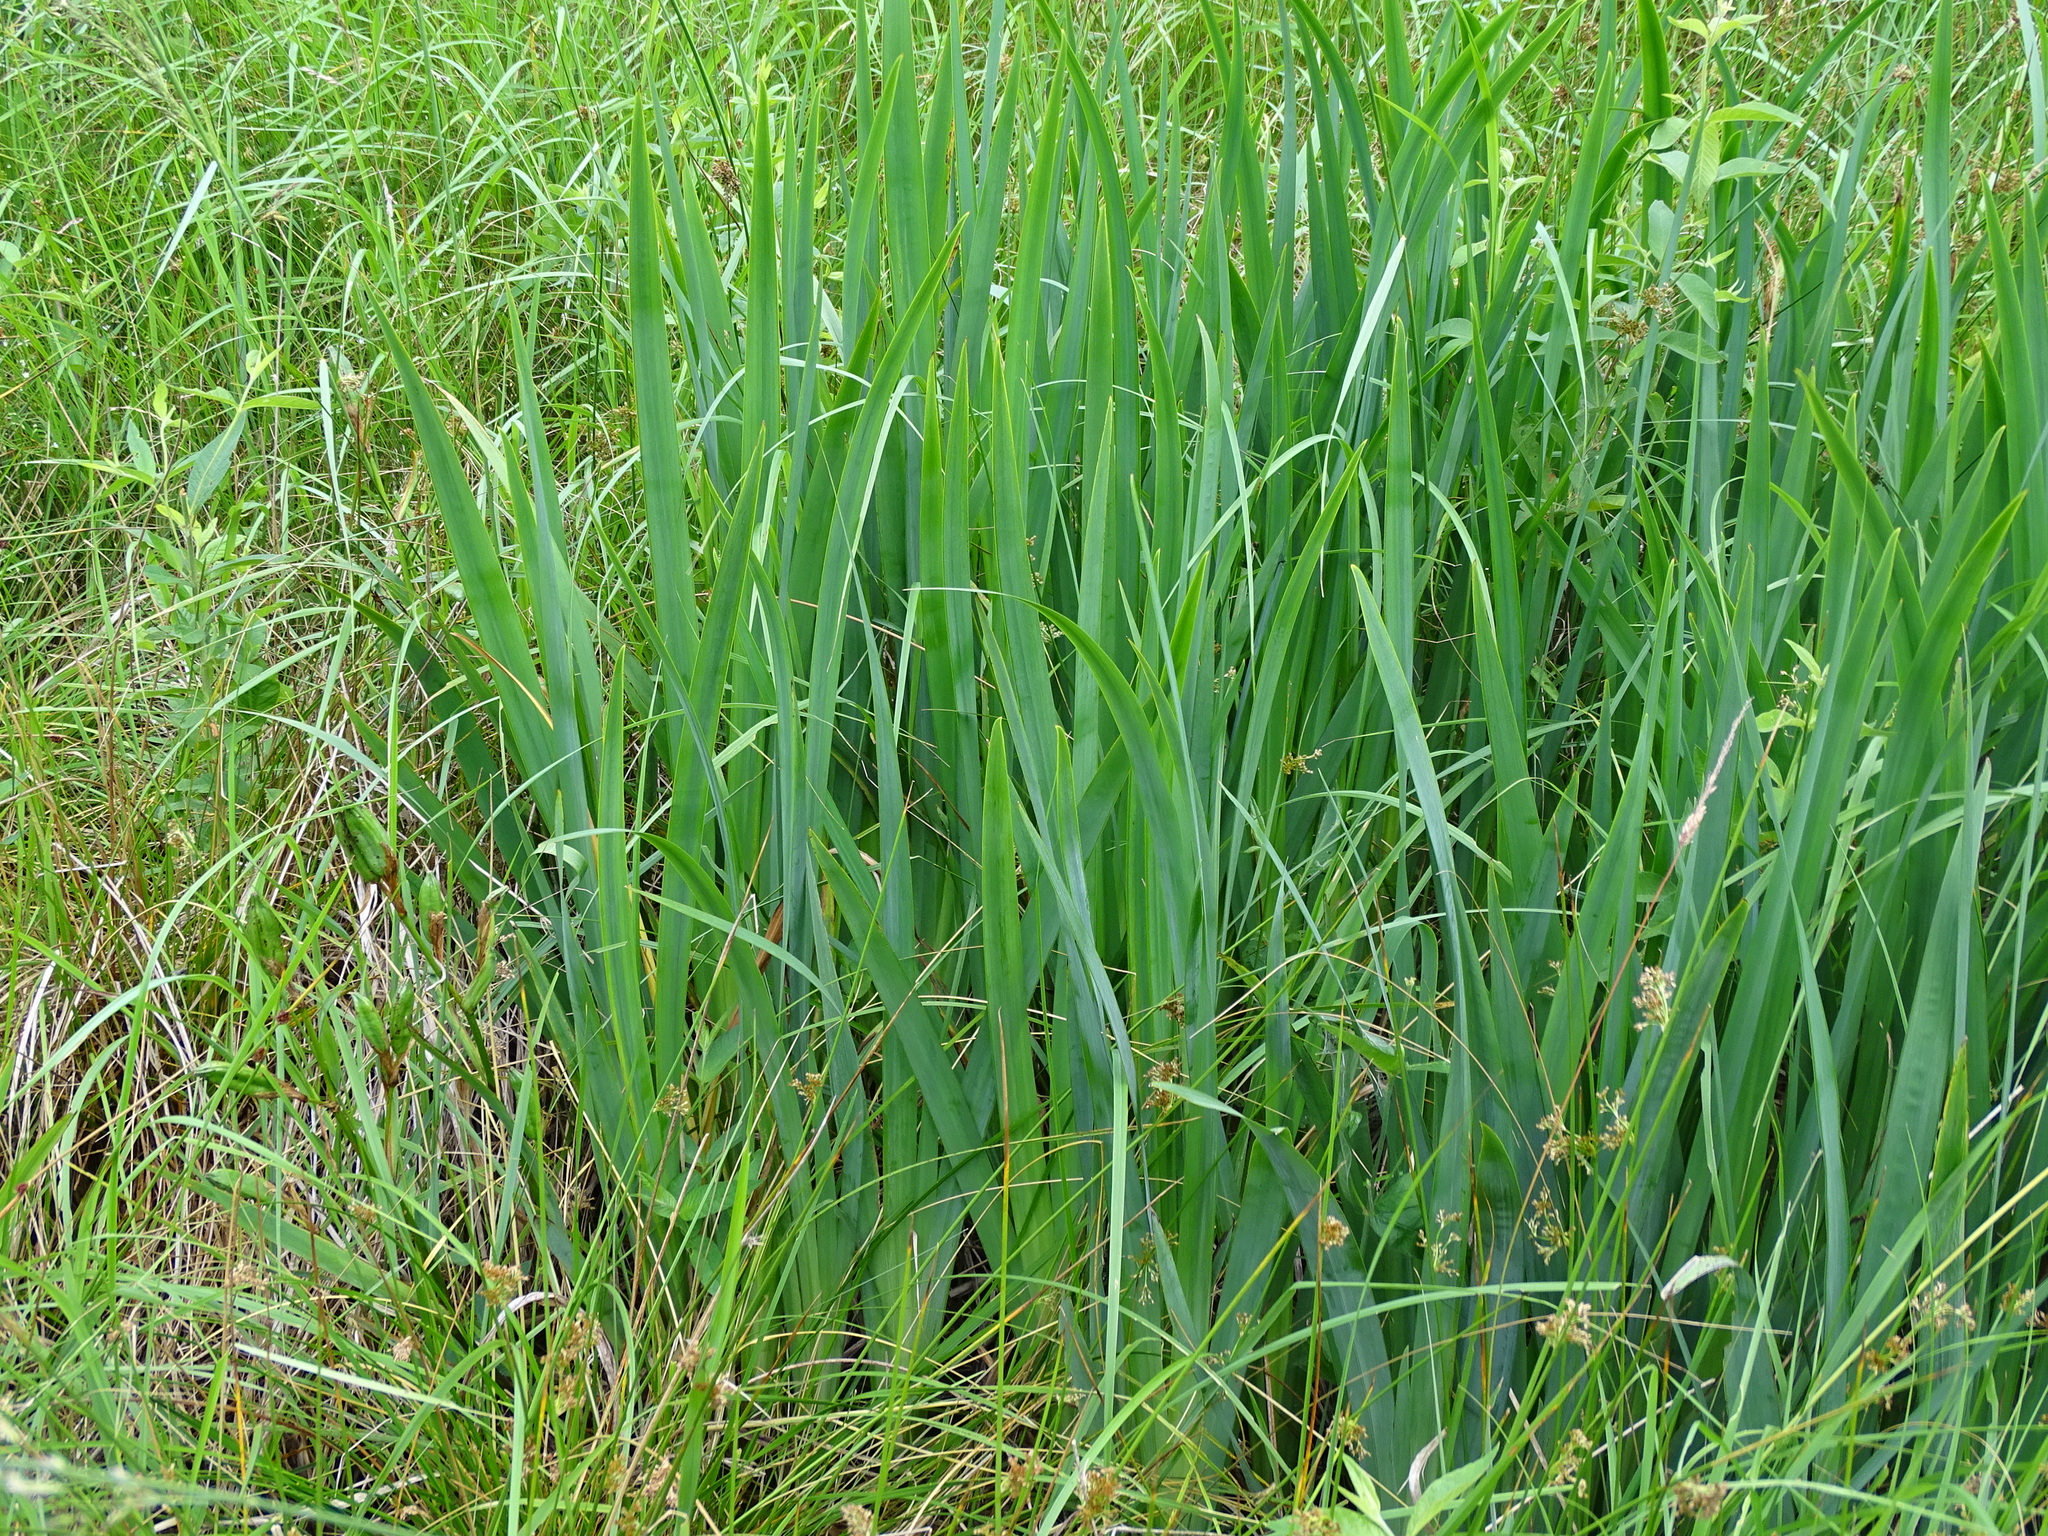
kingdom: Plantae
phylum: Tracheophyta
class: Liliopsida
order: Asparagales
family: Iridaceae
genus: Iris
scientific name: Iris pseudacorus
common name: Yellow flag
